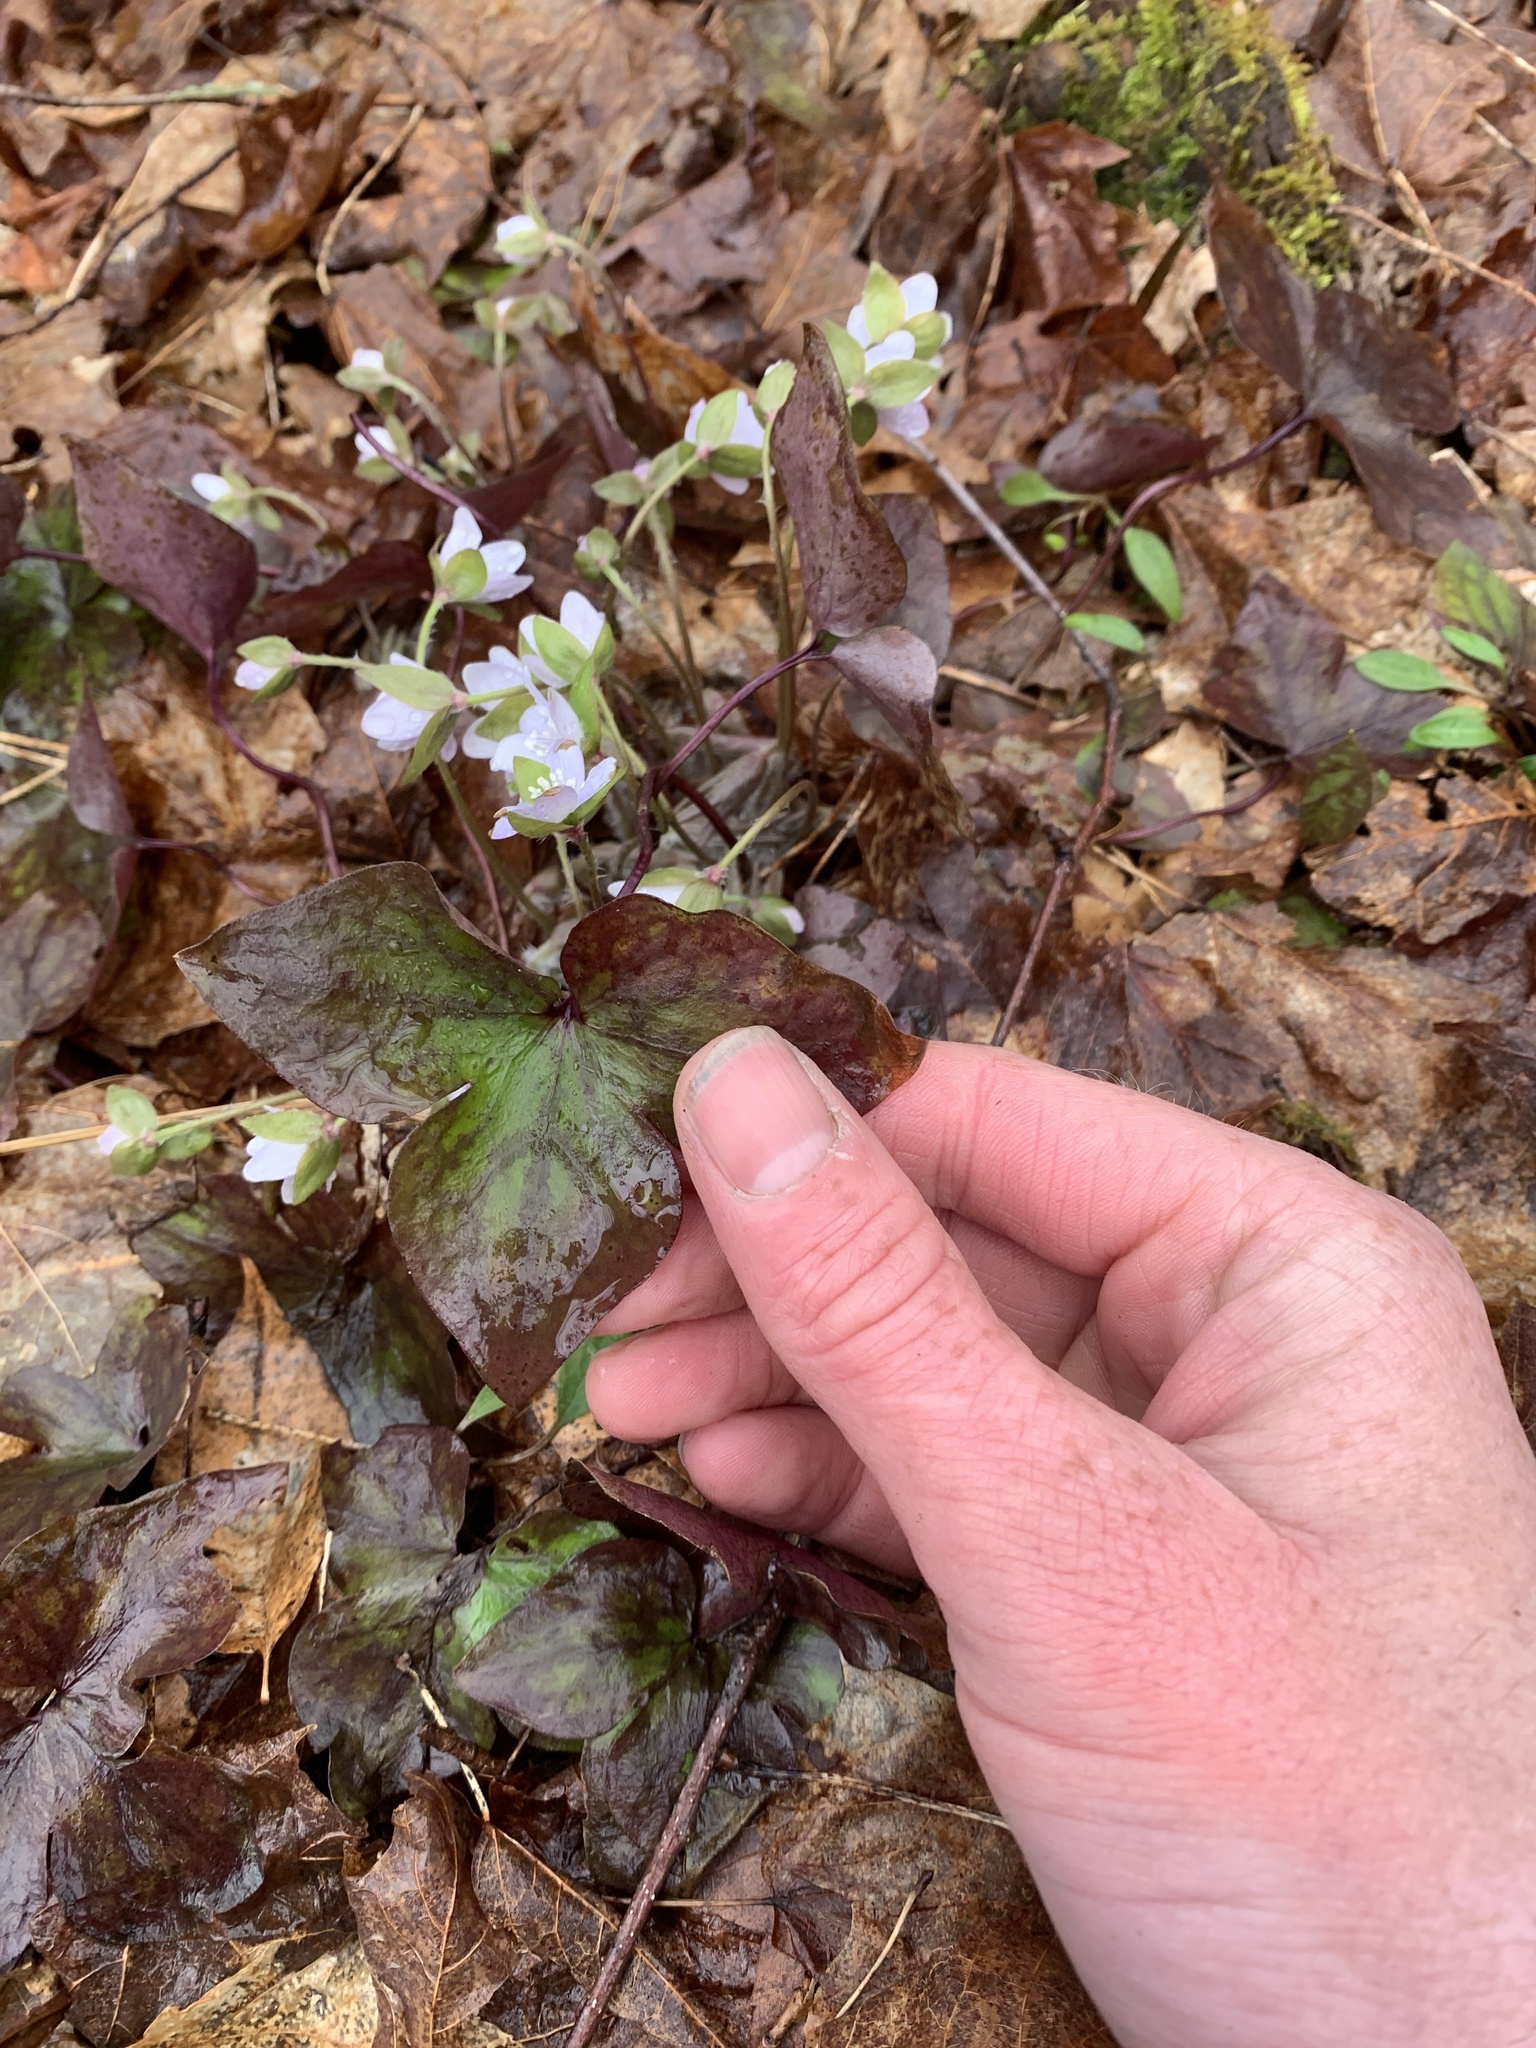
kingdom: Plantae
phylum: Tracheophyta
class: Magnoliopsida
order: Ranunculales
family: Ranunculaceae
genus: Hepatica
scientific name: Hepatica acutiloba
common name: Sharp-lobed hepatica
